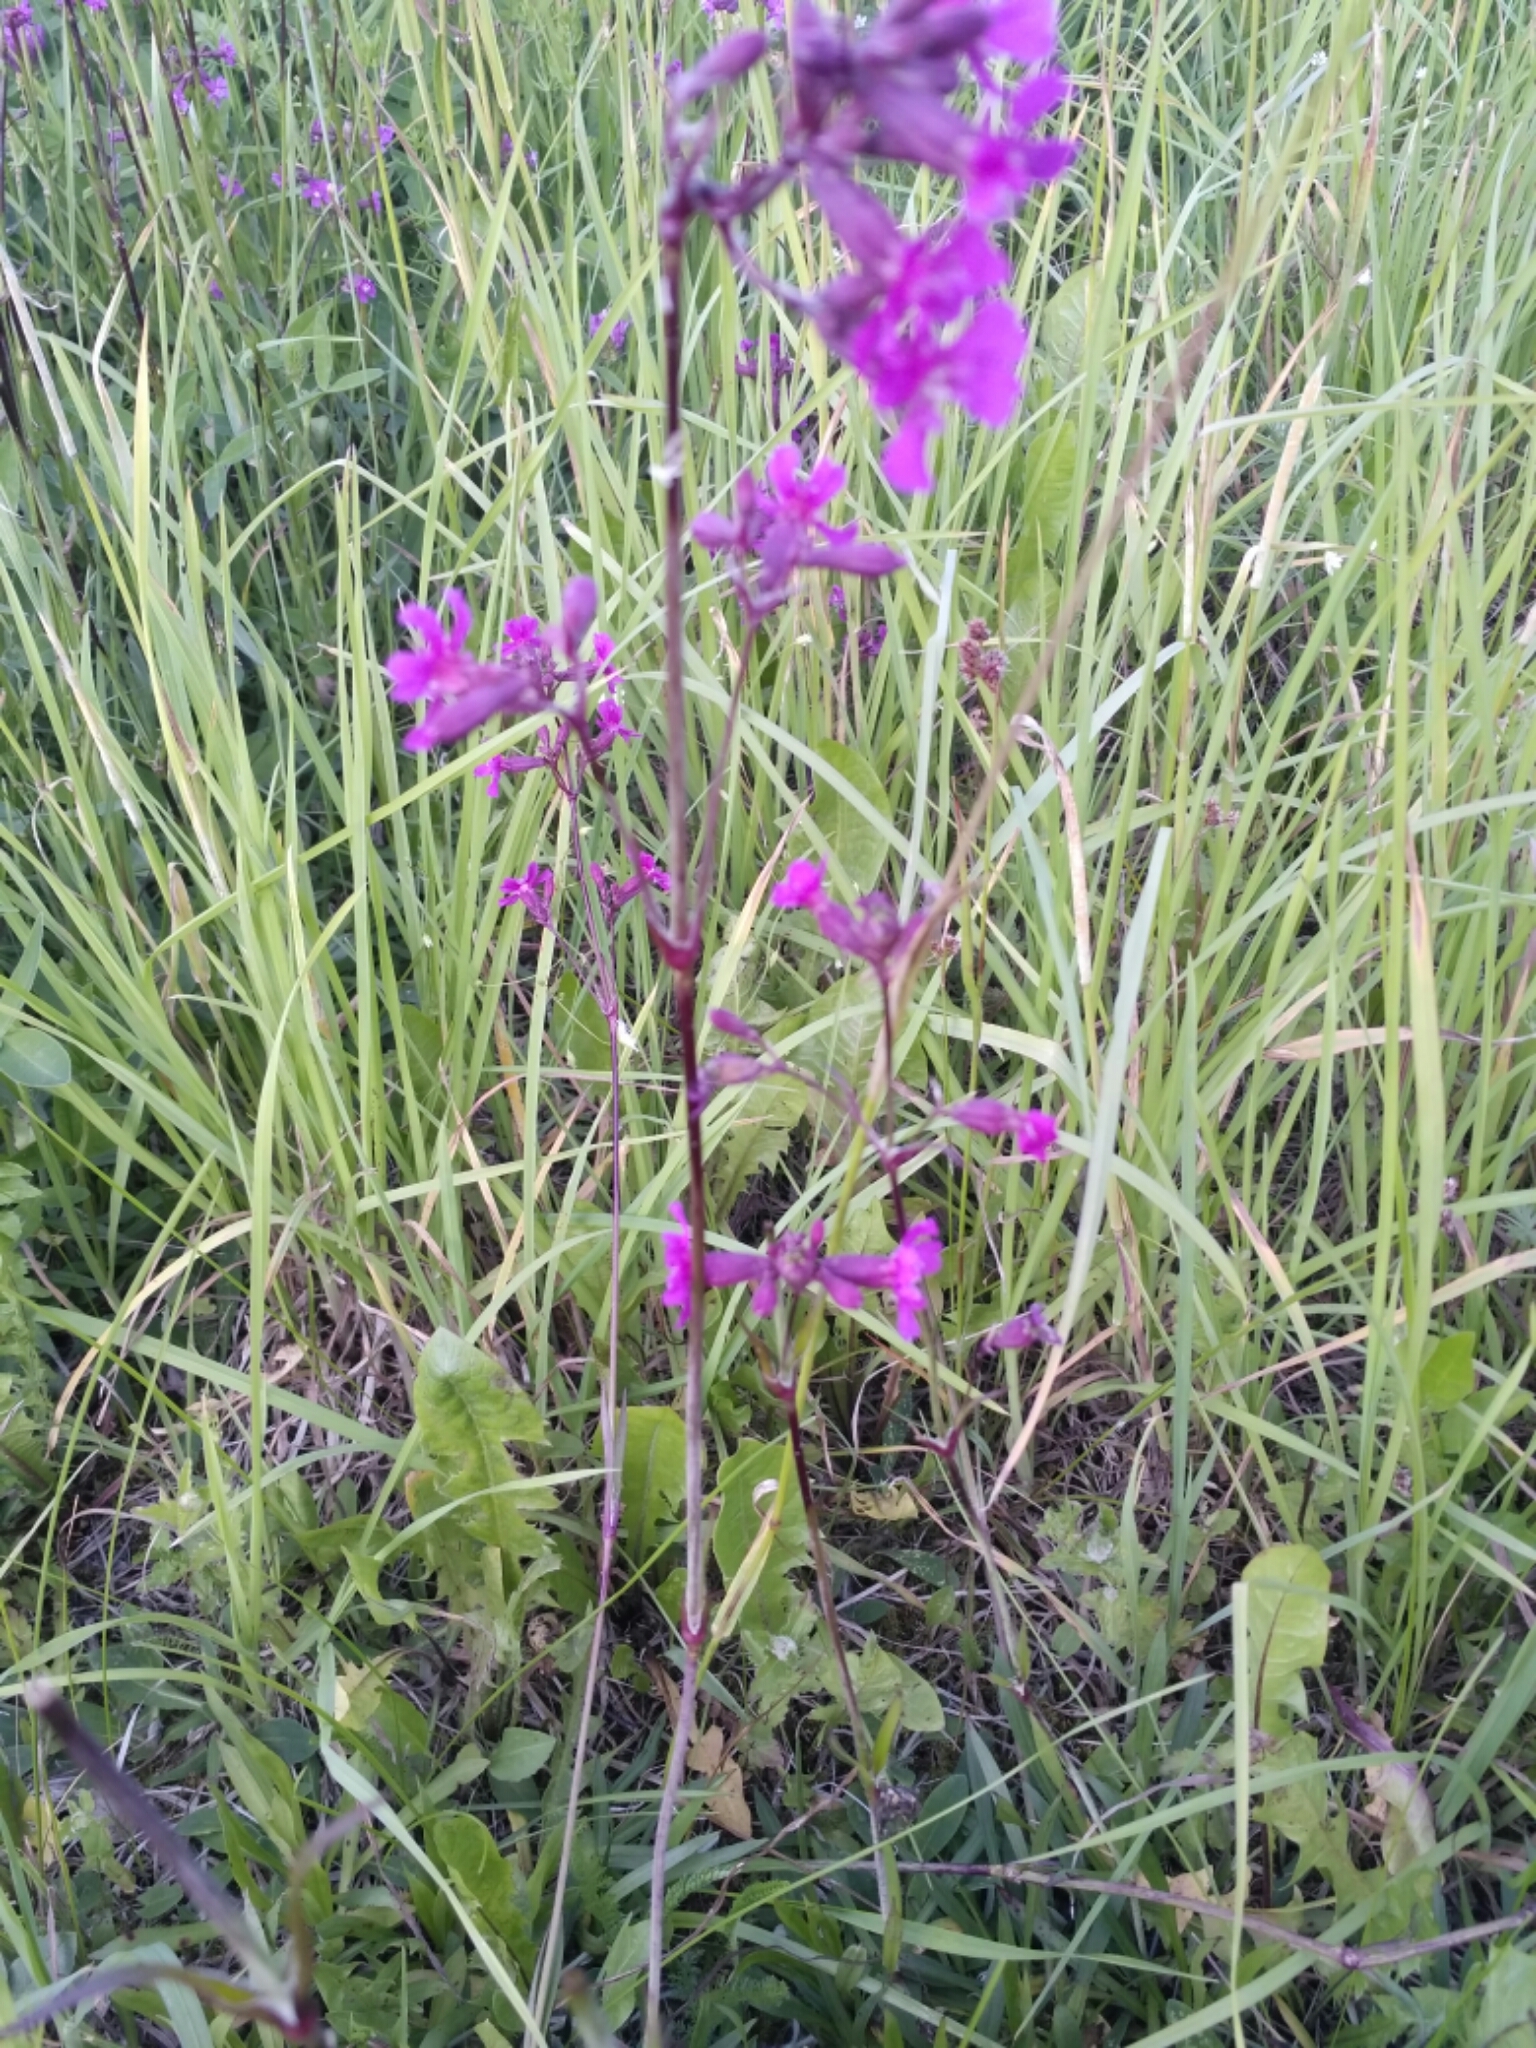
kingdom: Plantae
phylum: Tracheophyta
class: Magnoliopsida
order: Caryophyllales
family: Caryophyllaceae
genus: Viscaria
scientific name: Viscaria vulgaris
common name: Clammy campion
